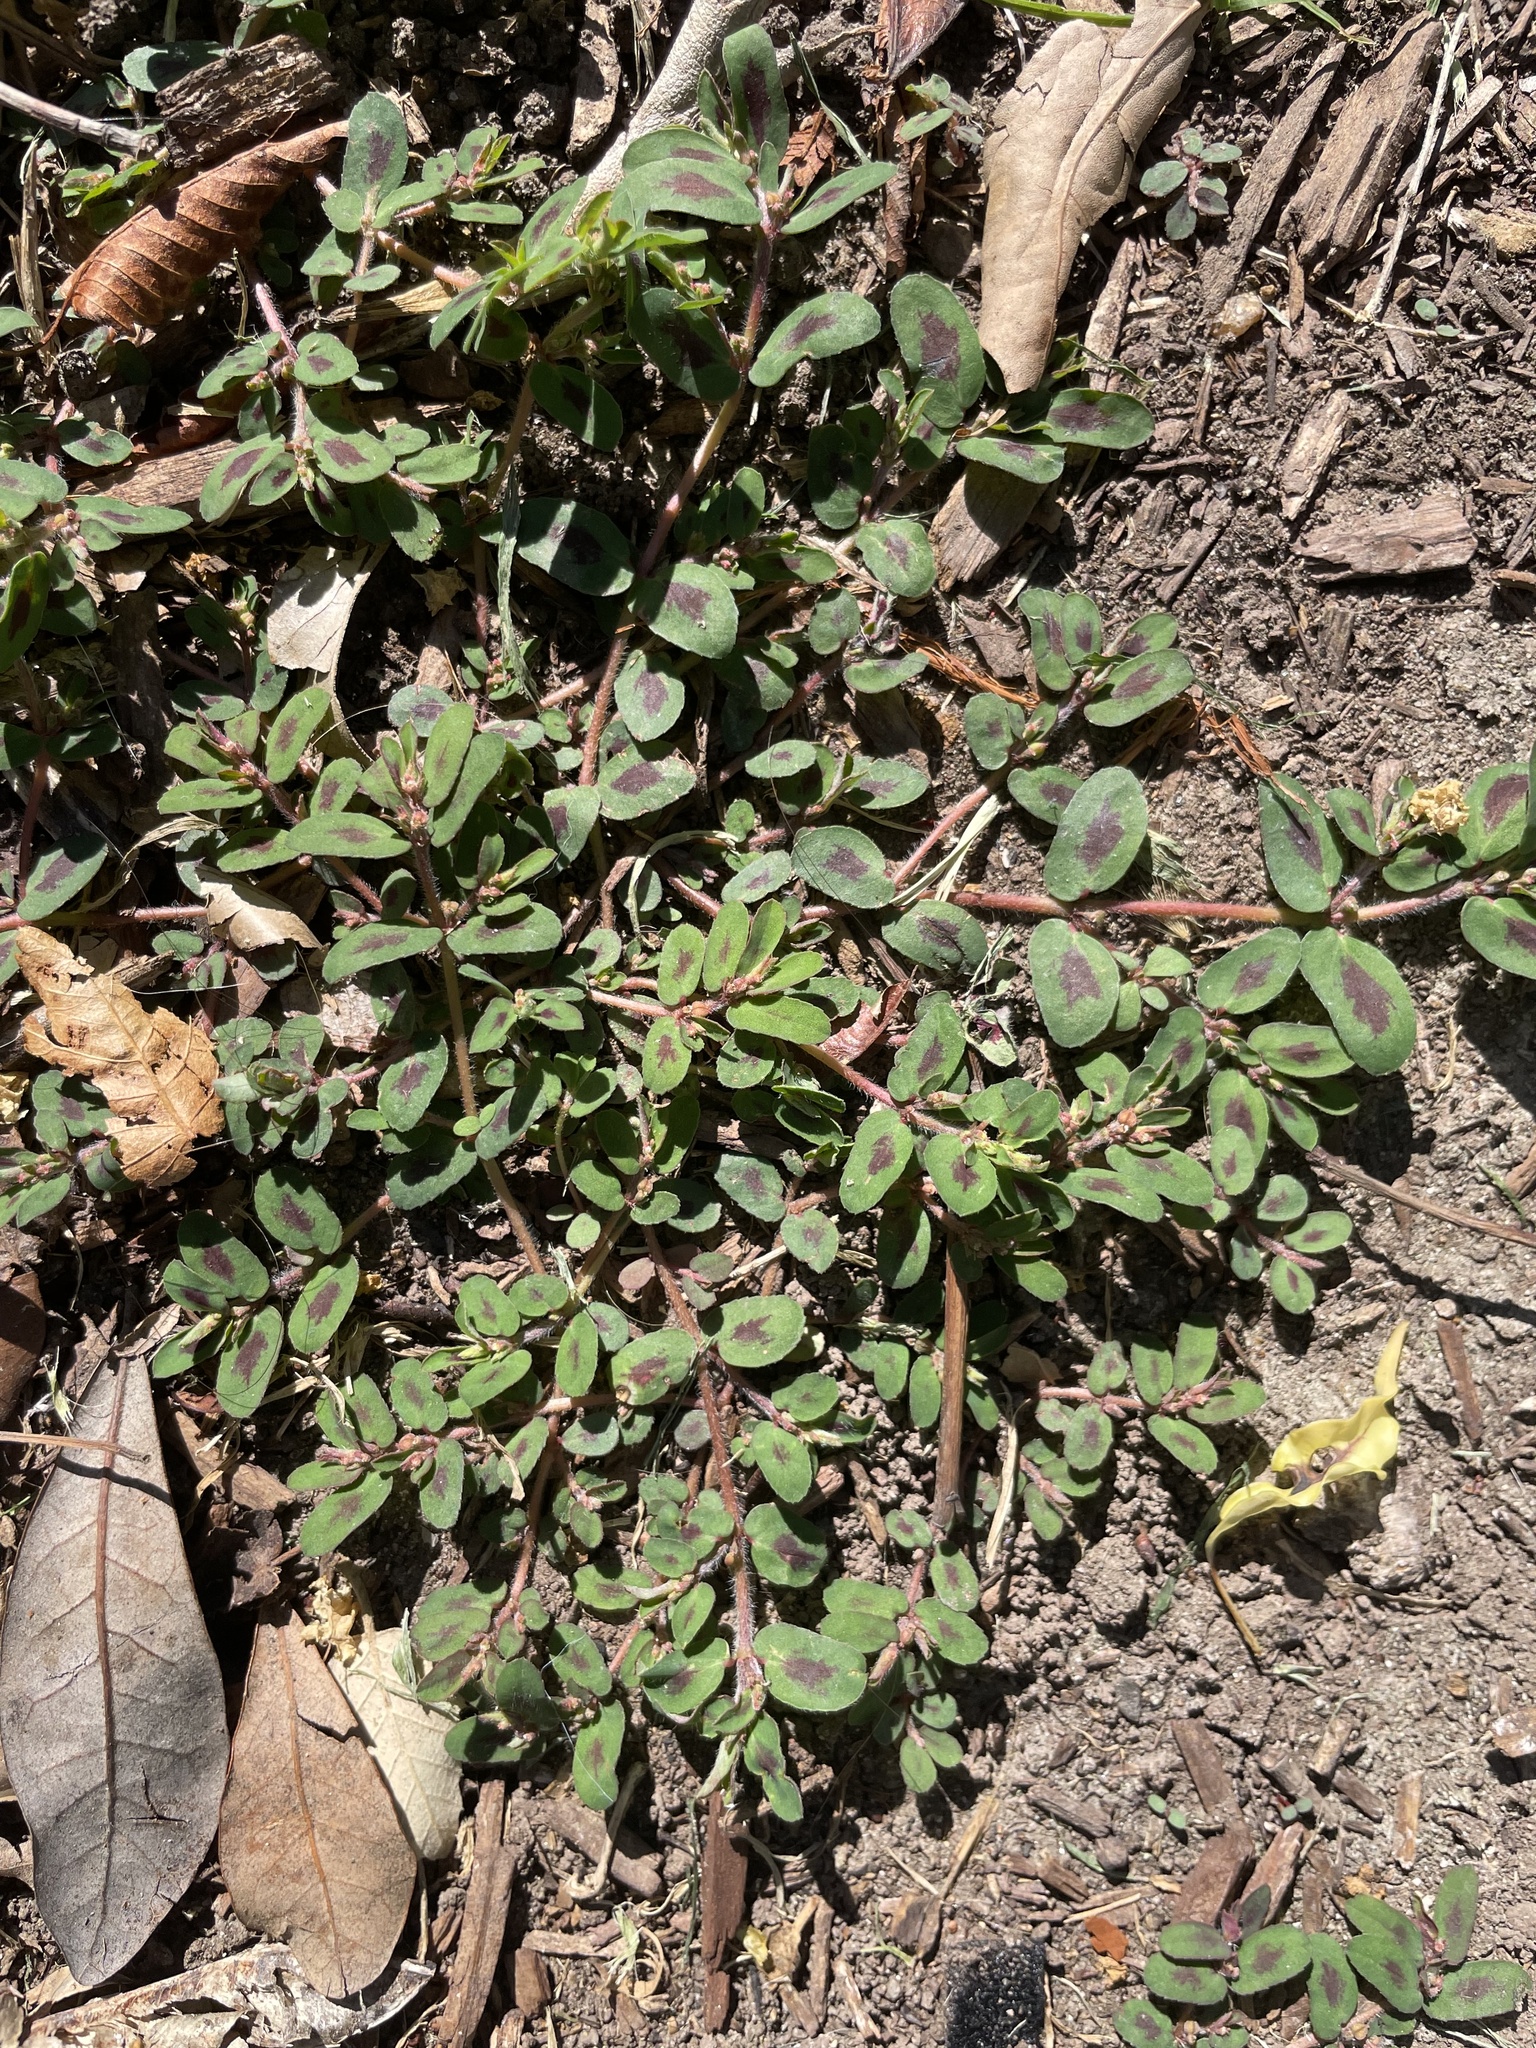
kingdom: Plantae
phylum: Tracheophyta
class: Magnoliopsida
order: Malpighiales
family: Euphorbiaceae
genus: Euphorbia
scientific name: Euphorbia maculata
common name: Spotted spurge
